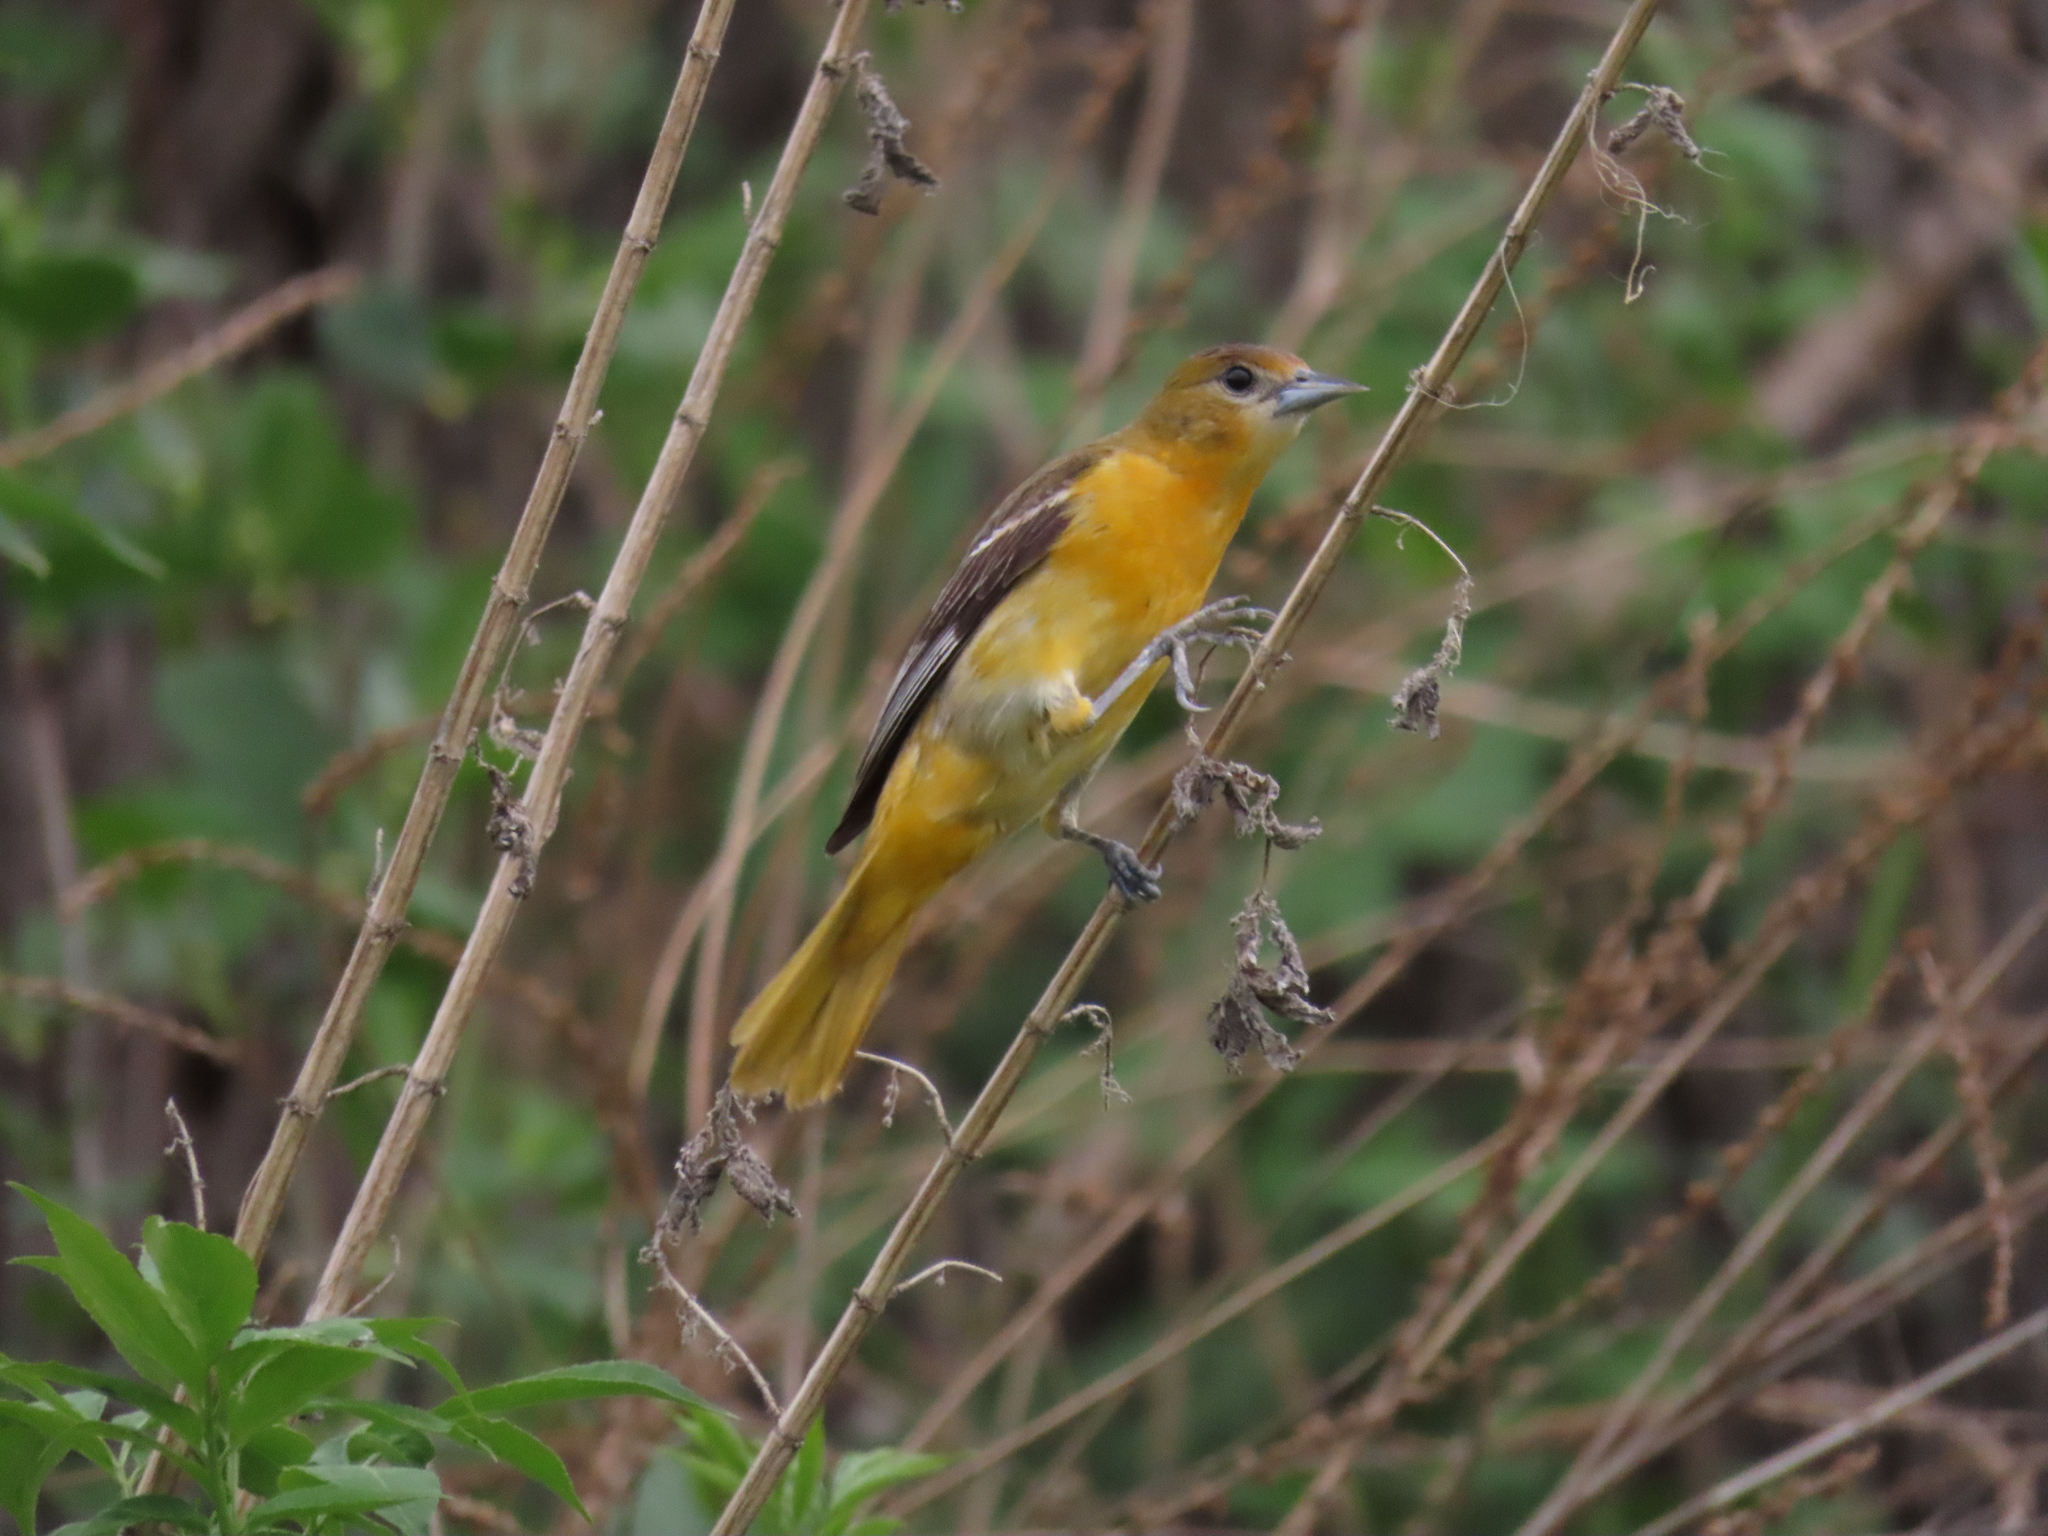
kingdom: Animalia
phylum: Chordata
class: Aves
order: Passeriformes
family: Icteridae
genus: Icterus
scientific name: Icterus galbula
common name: Baltimore oriole
